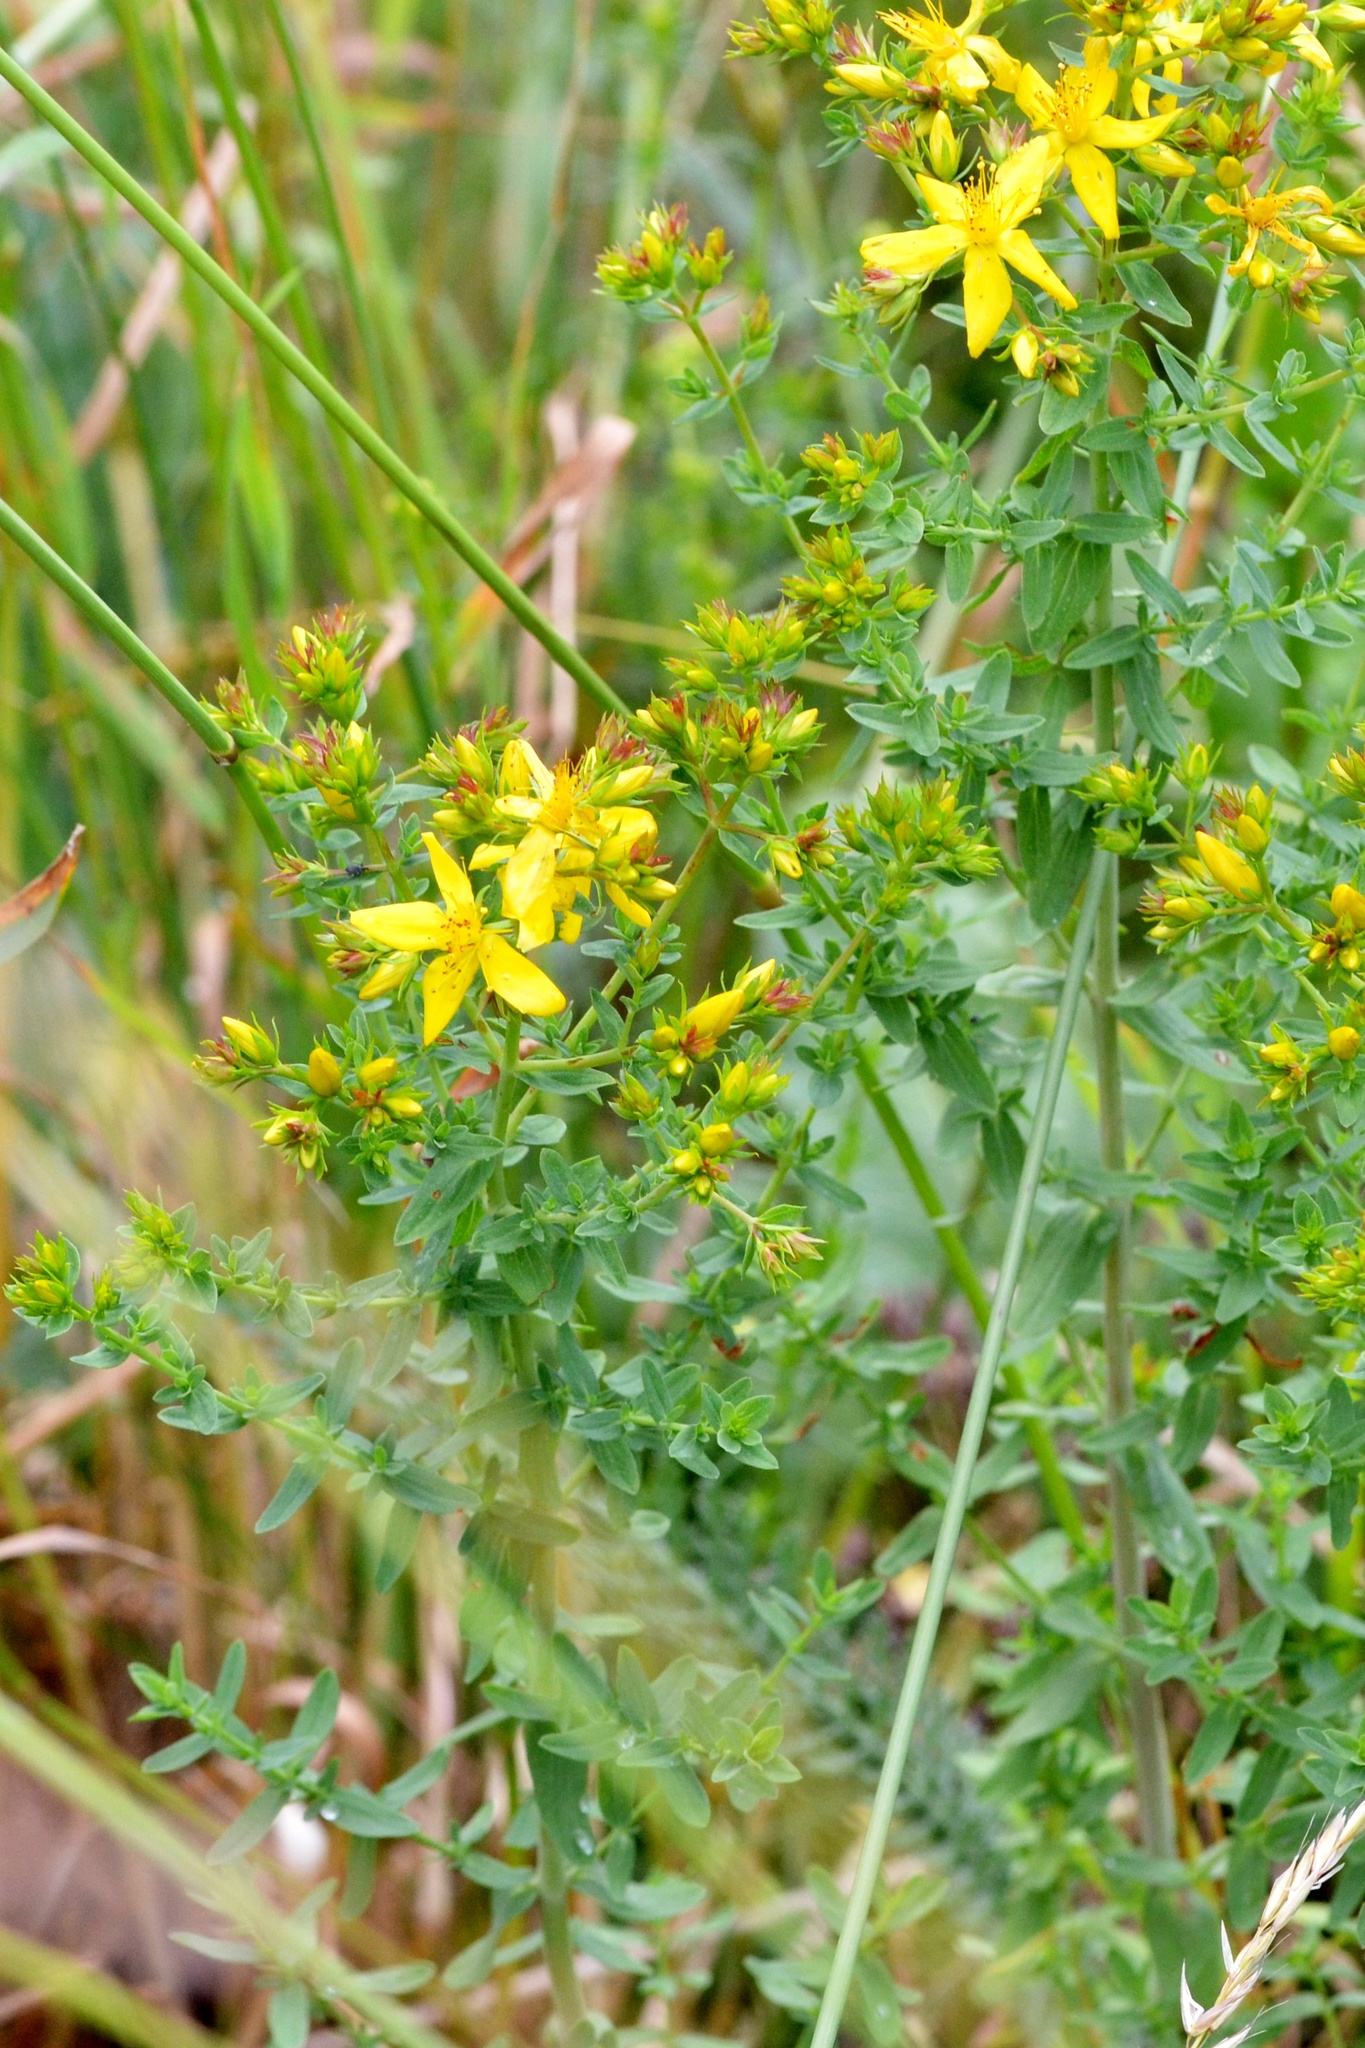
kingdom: Plantae
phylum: Tracheophyta
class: Magnoliopsida
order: Malpighiales
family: Hypericaceae
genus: Hypericum
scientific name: Hypericum perforatum
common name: Common st. johnswort
